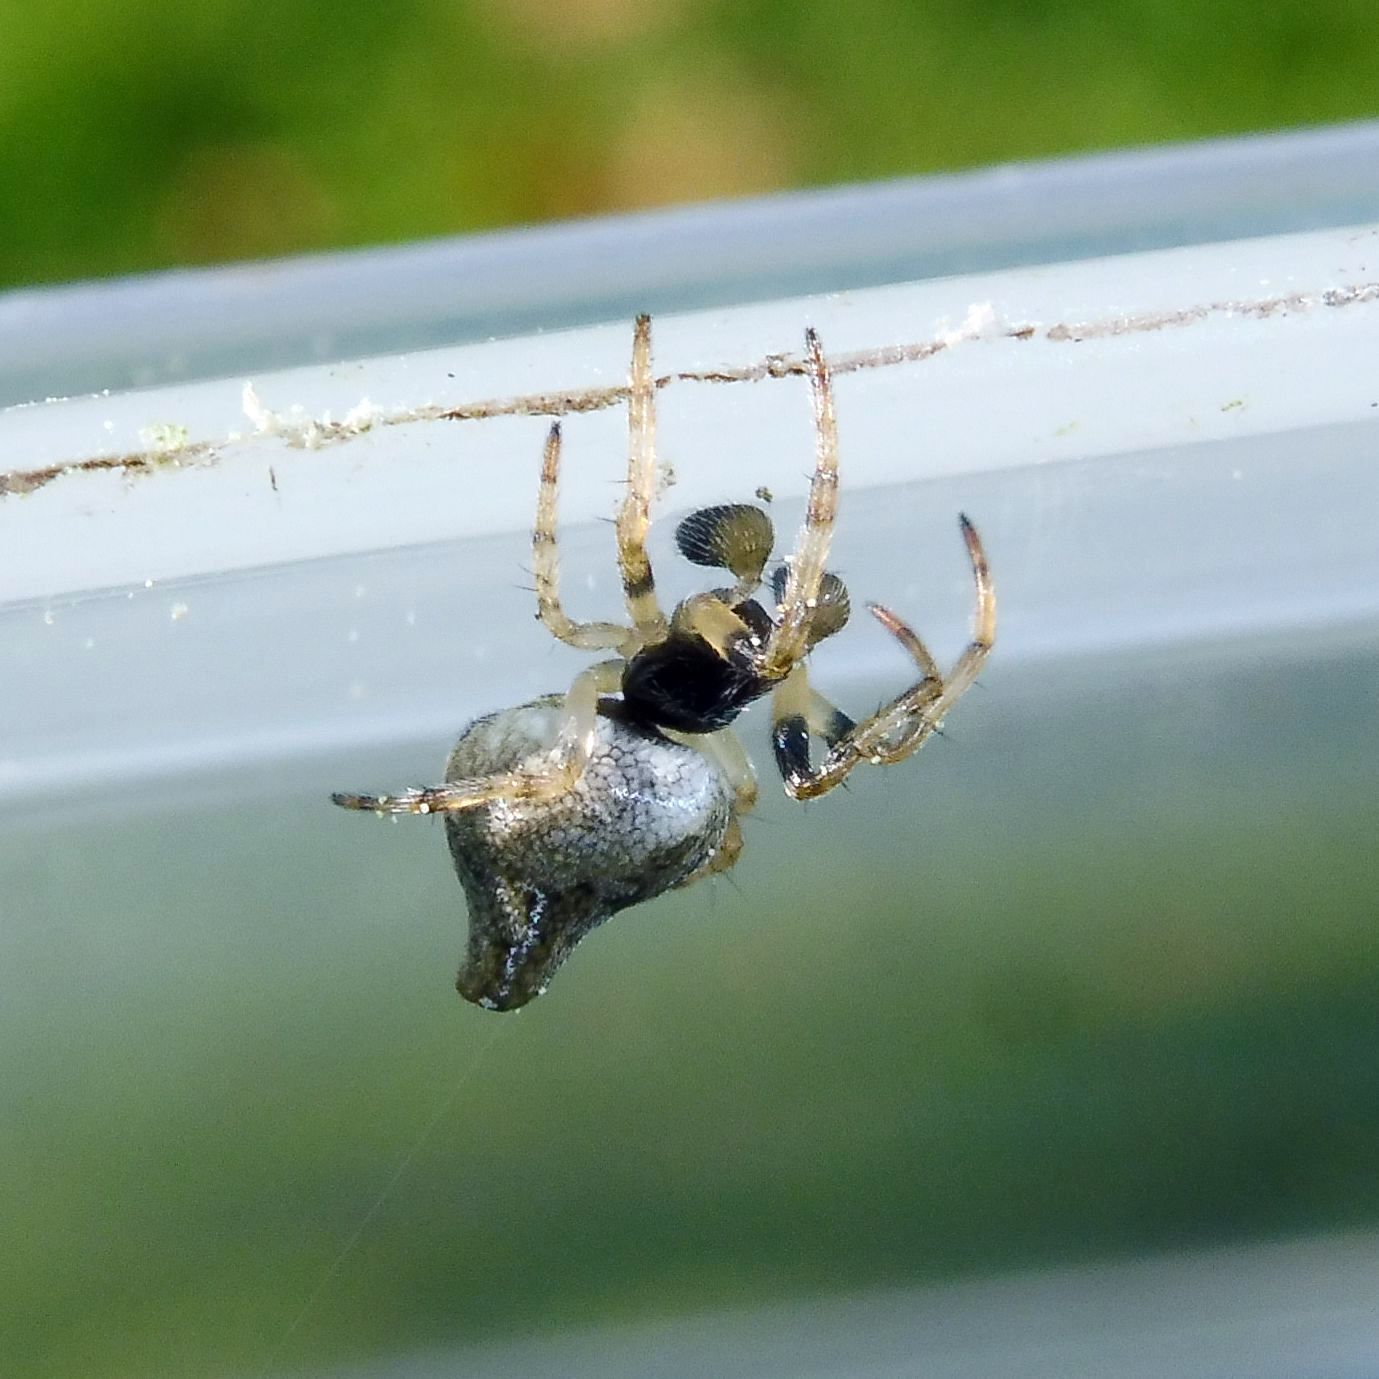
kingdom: Animalia
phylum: Arthropoda
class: Arachnida
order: Araneae
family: Araneidae
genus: Cyclosa
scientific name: Cyclosa conica
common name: Conical trashline orbweaver
